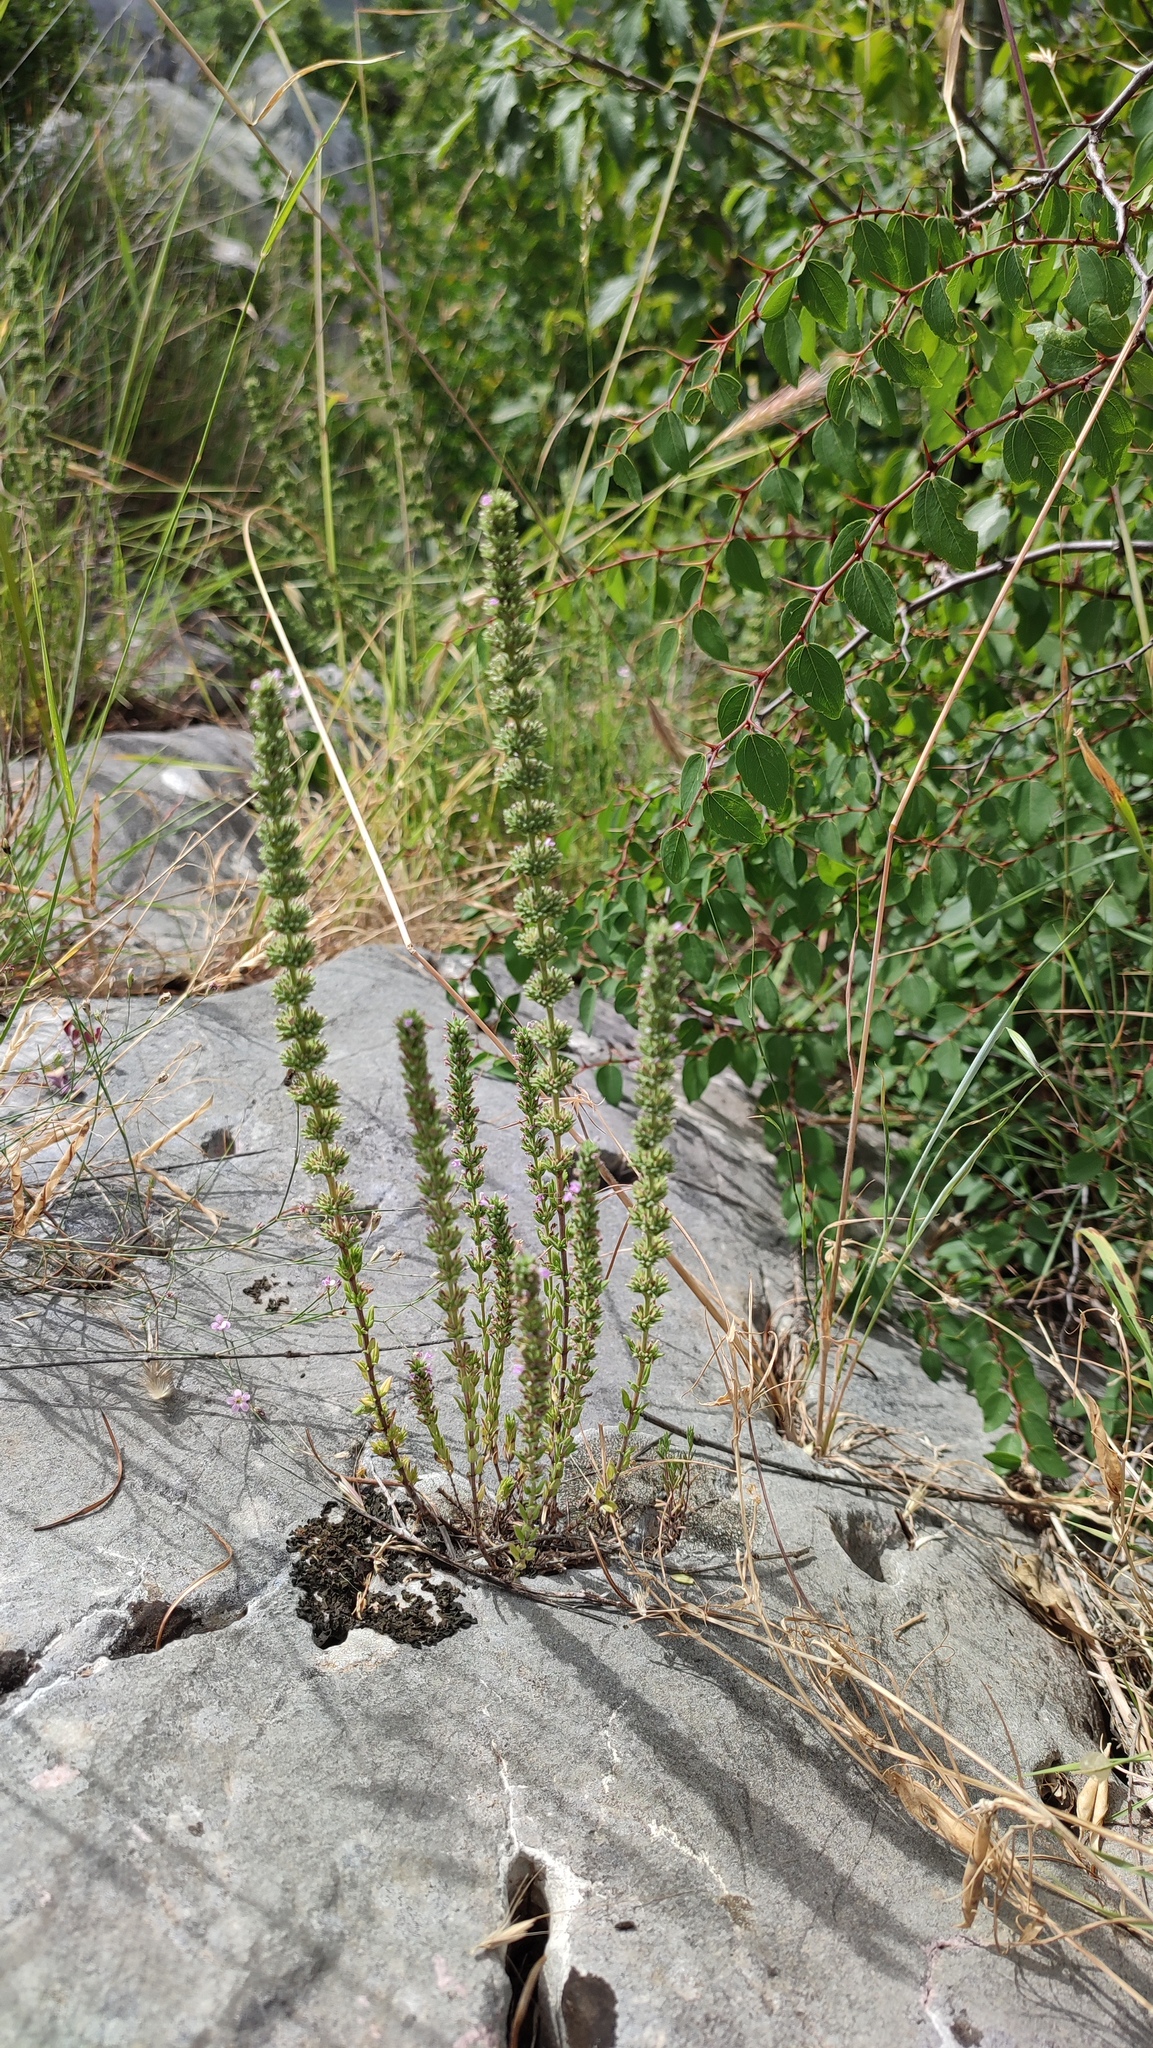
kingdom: Plantae
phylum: Tracheophyta
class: Magnoliopsida
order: Lamiales
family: Lamiaceae
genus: Micromeria
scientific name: Micromeria juliana
